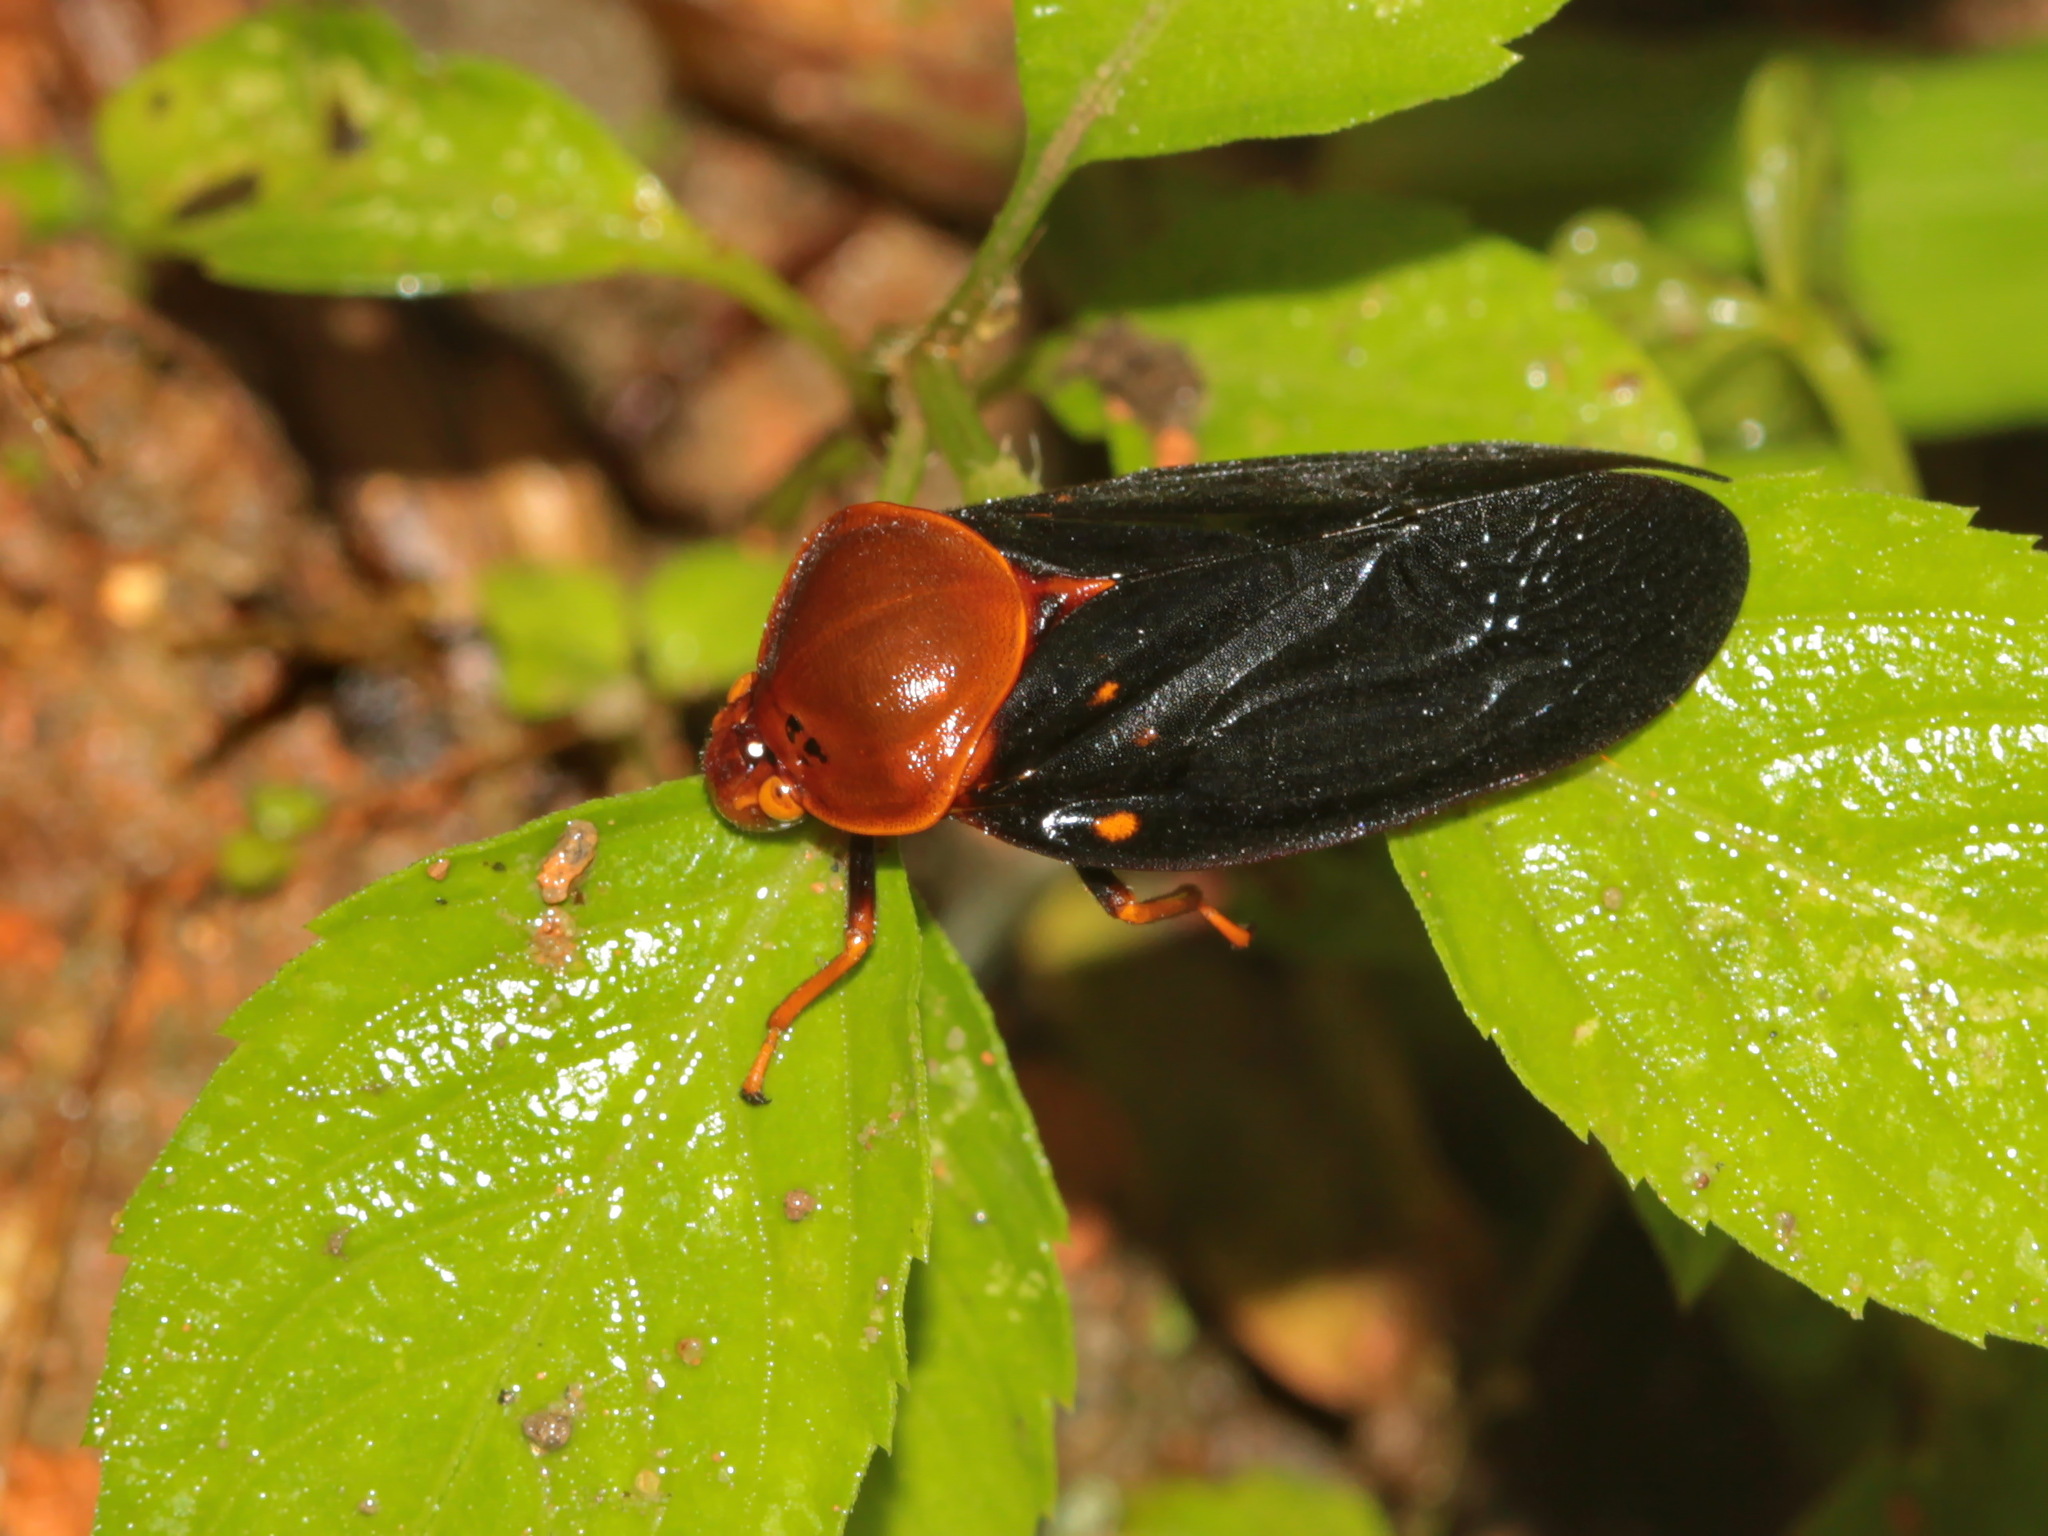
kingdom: Animalia
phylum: Arthropoda
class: Insecta
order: Hemiptera
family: Cercopidae
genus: Suracarta
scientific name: Suracarta basinotata
